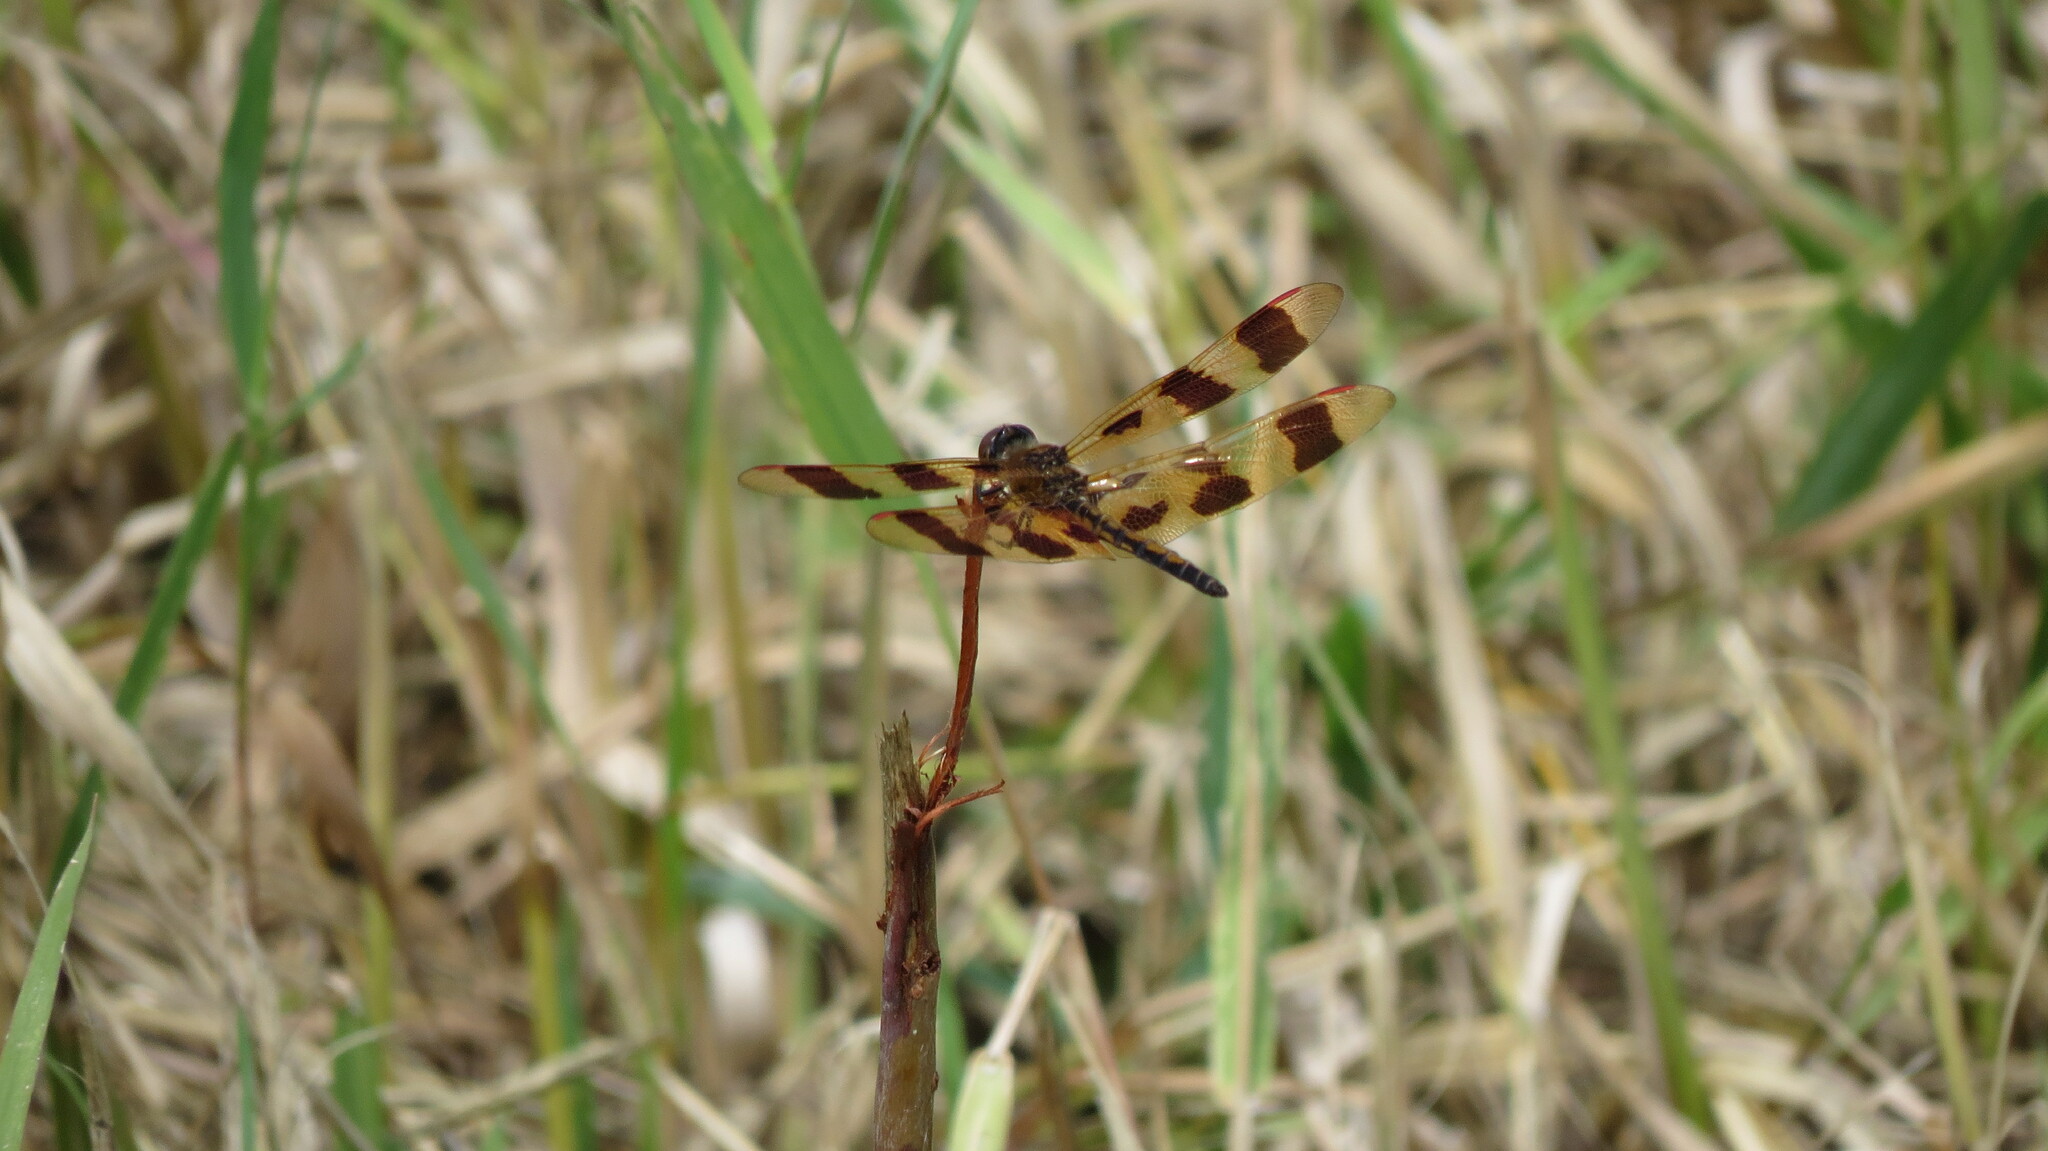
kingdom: Animalia
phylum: Arthropoda
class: Insecta
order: Odonata
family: Libellulidae
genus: Celithemis
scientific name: Celithemis eponina
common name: Halloween pennant
